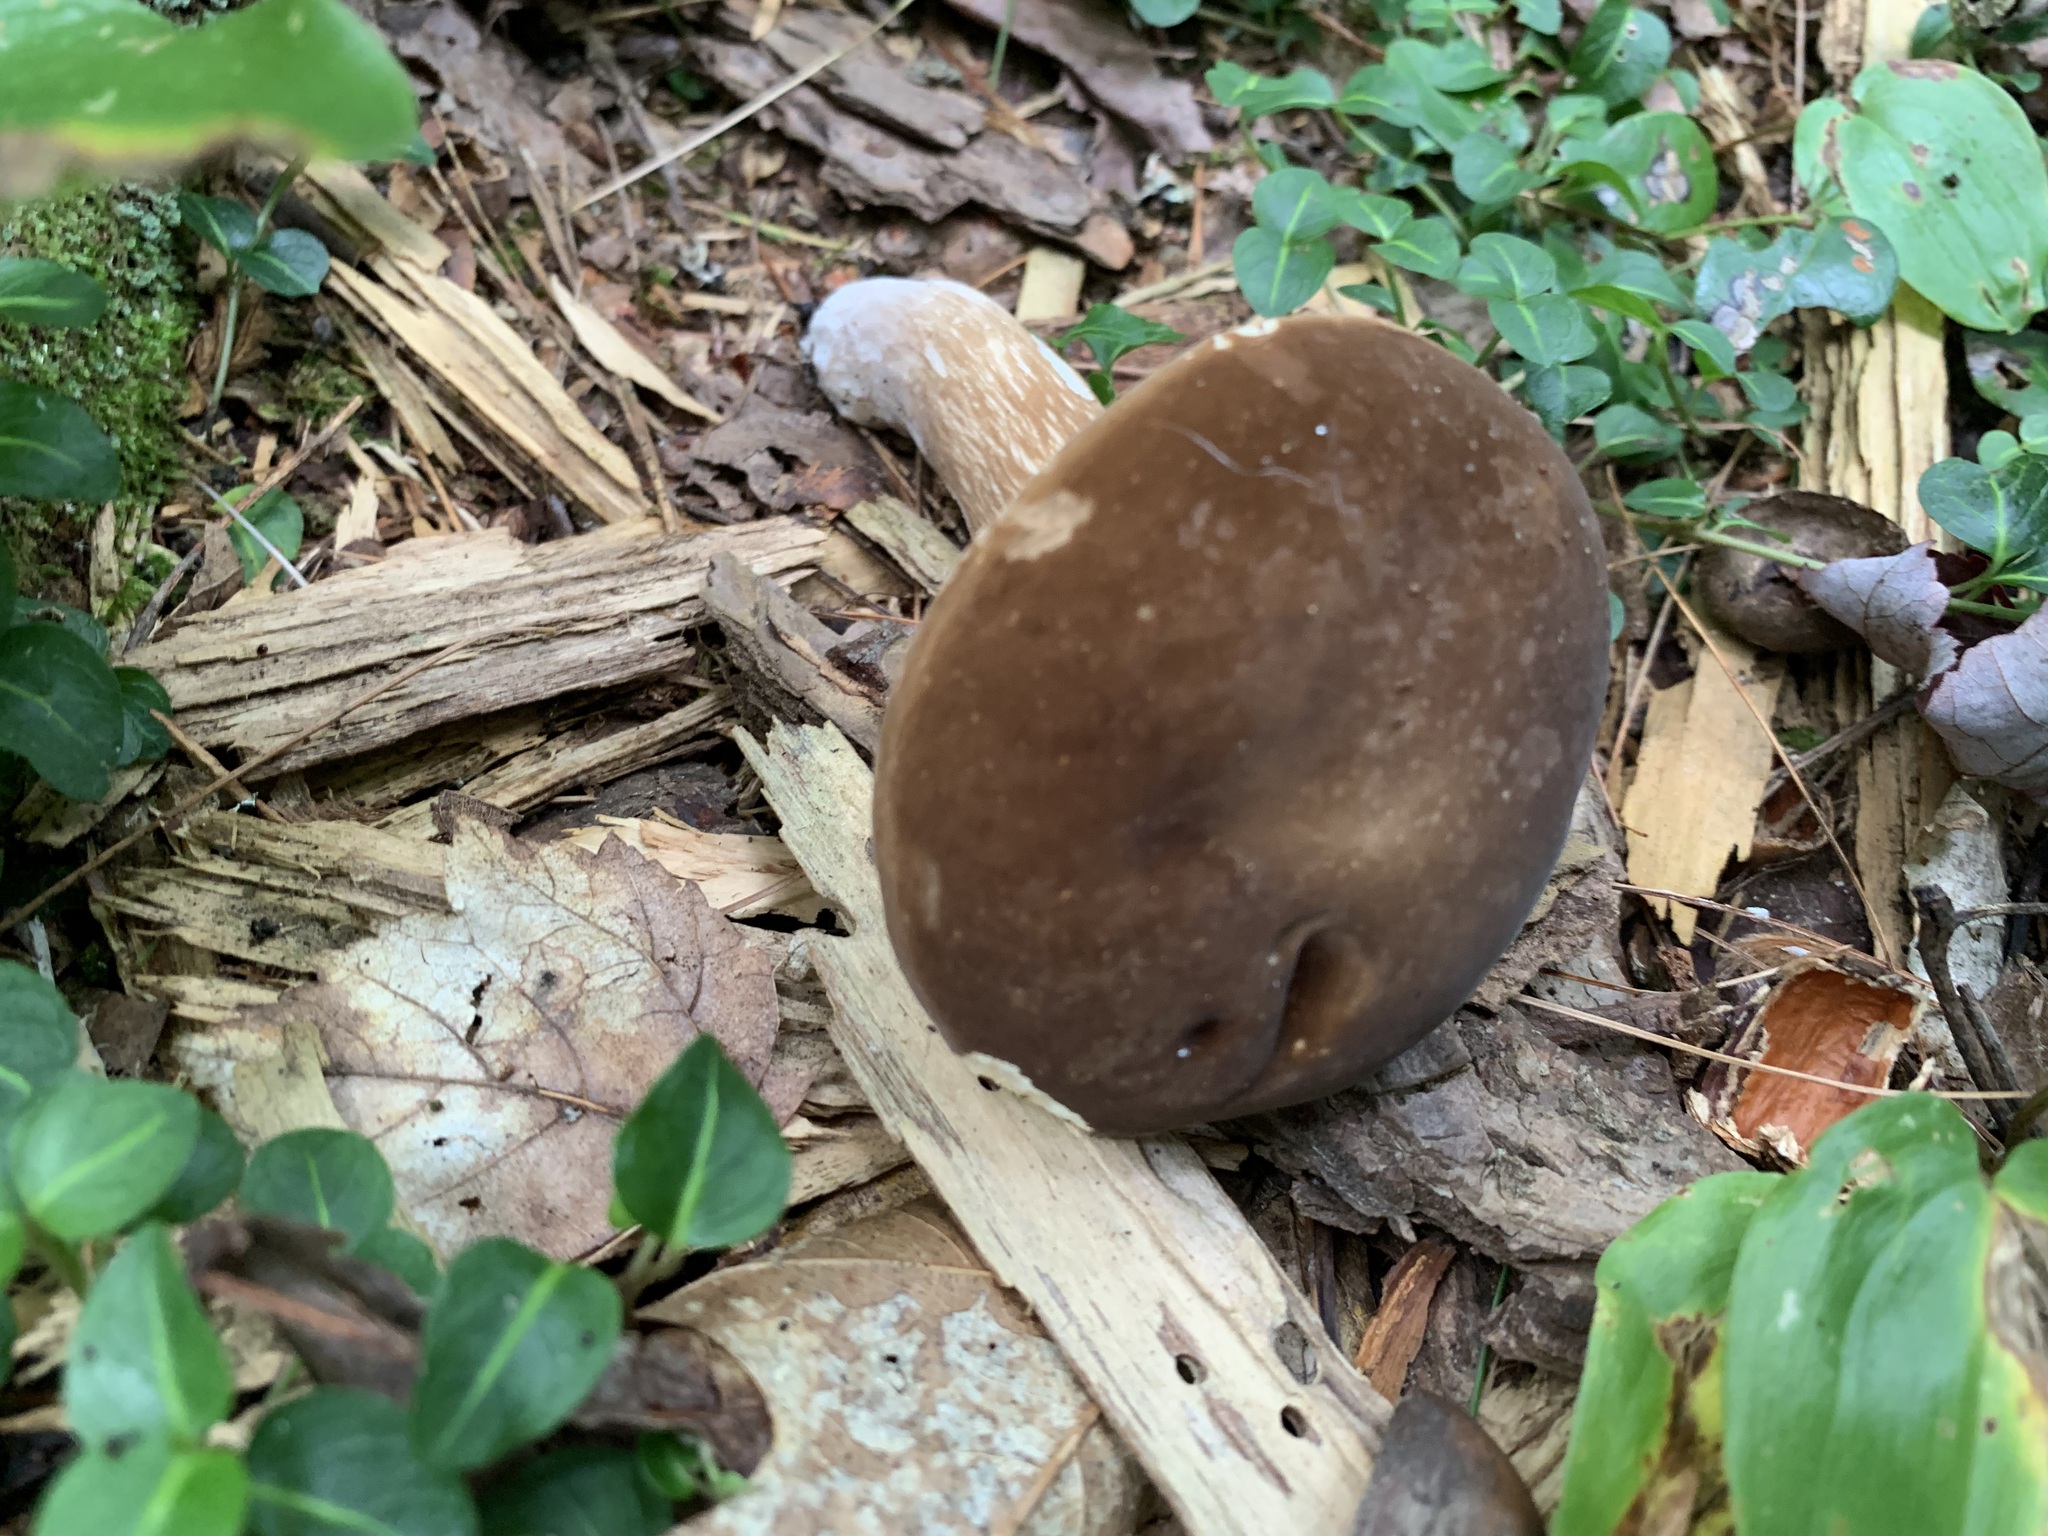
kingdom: Fungi
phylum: Basidiomycota
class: Agaricomycetes
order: Boletales
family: Boletaceae
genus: Xanthoconium
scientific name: Xanthoconium affine
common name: Spotted bolete
